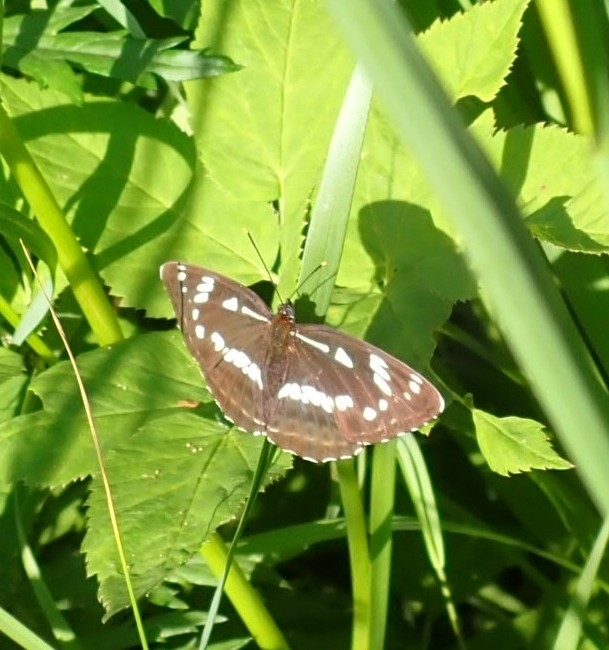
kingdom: Animalia
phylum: Arthropoda
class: Insecta
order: Lepidoptera
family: Nymphalidae
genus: Limenitis
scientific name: Limenitis helmanni
